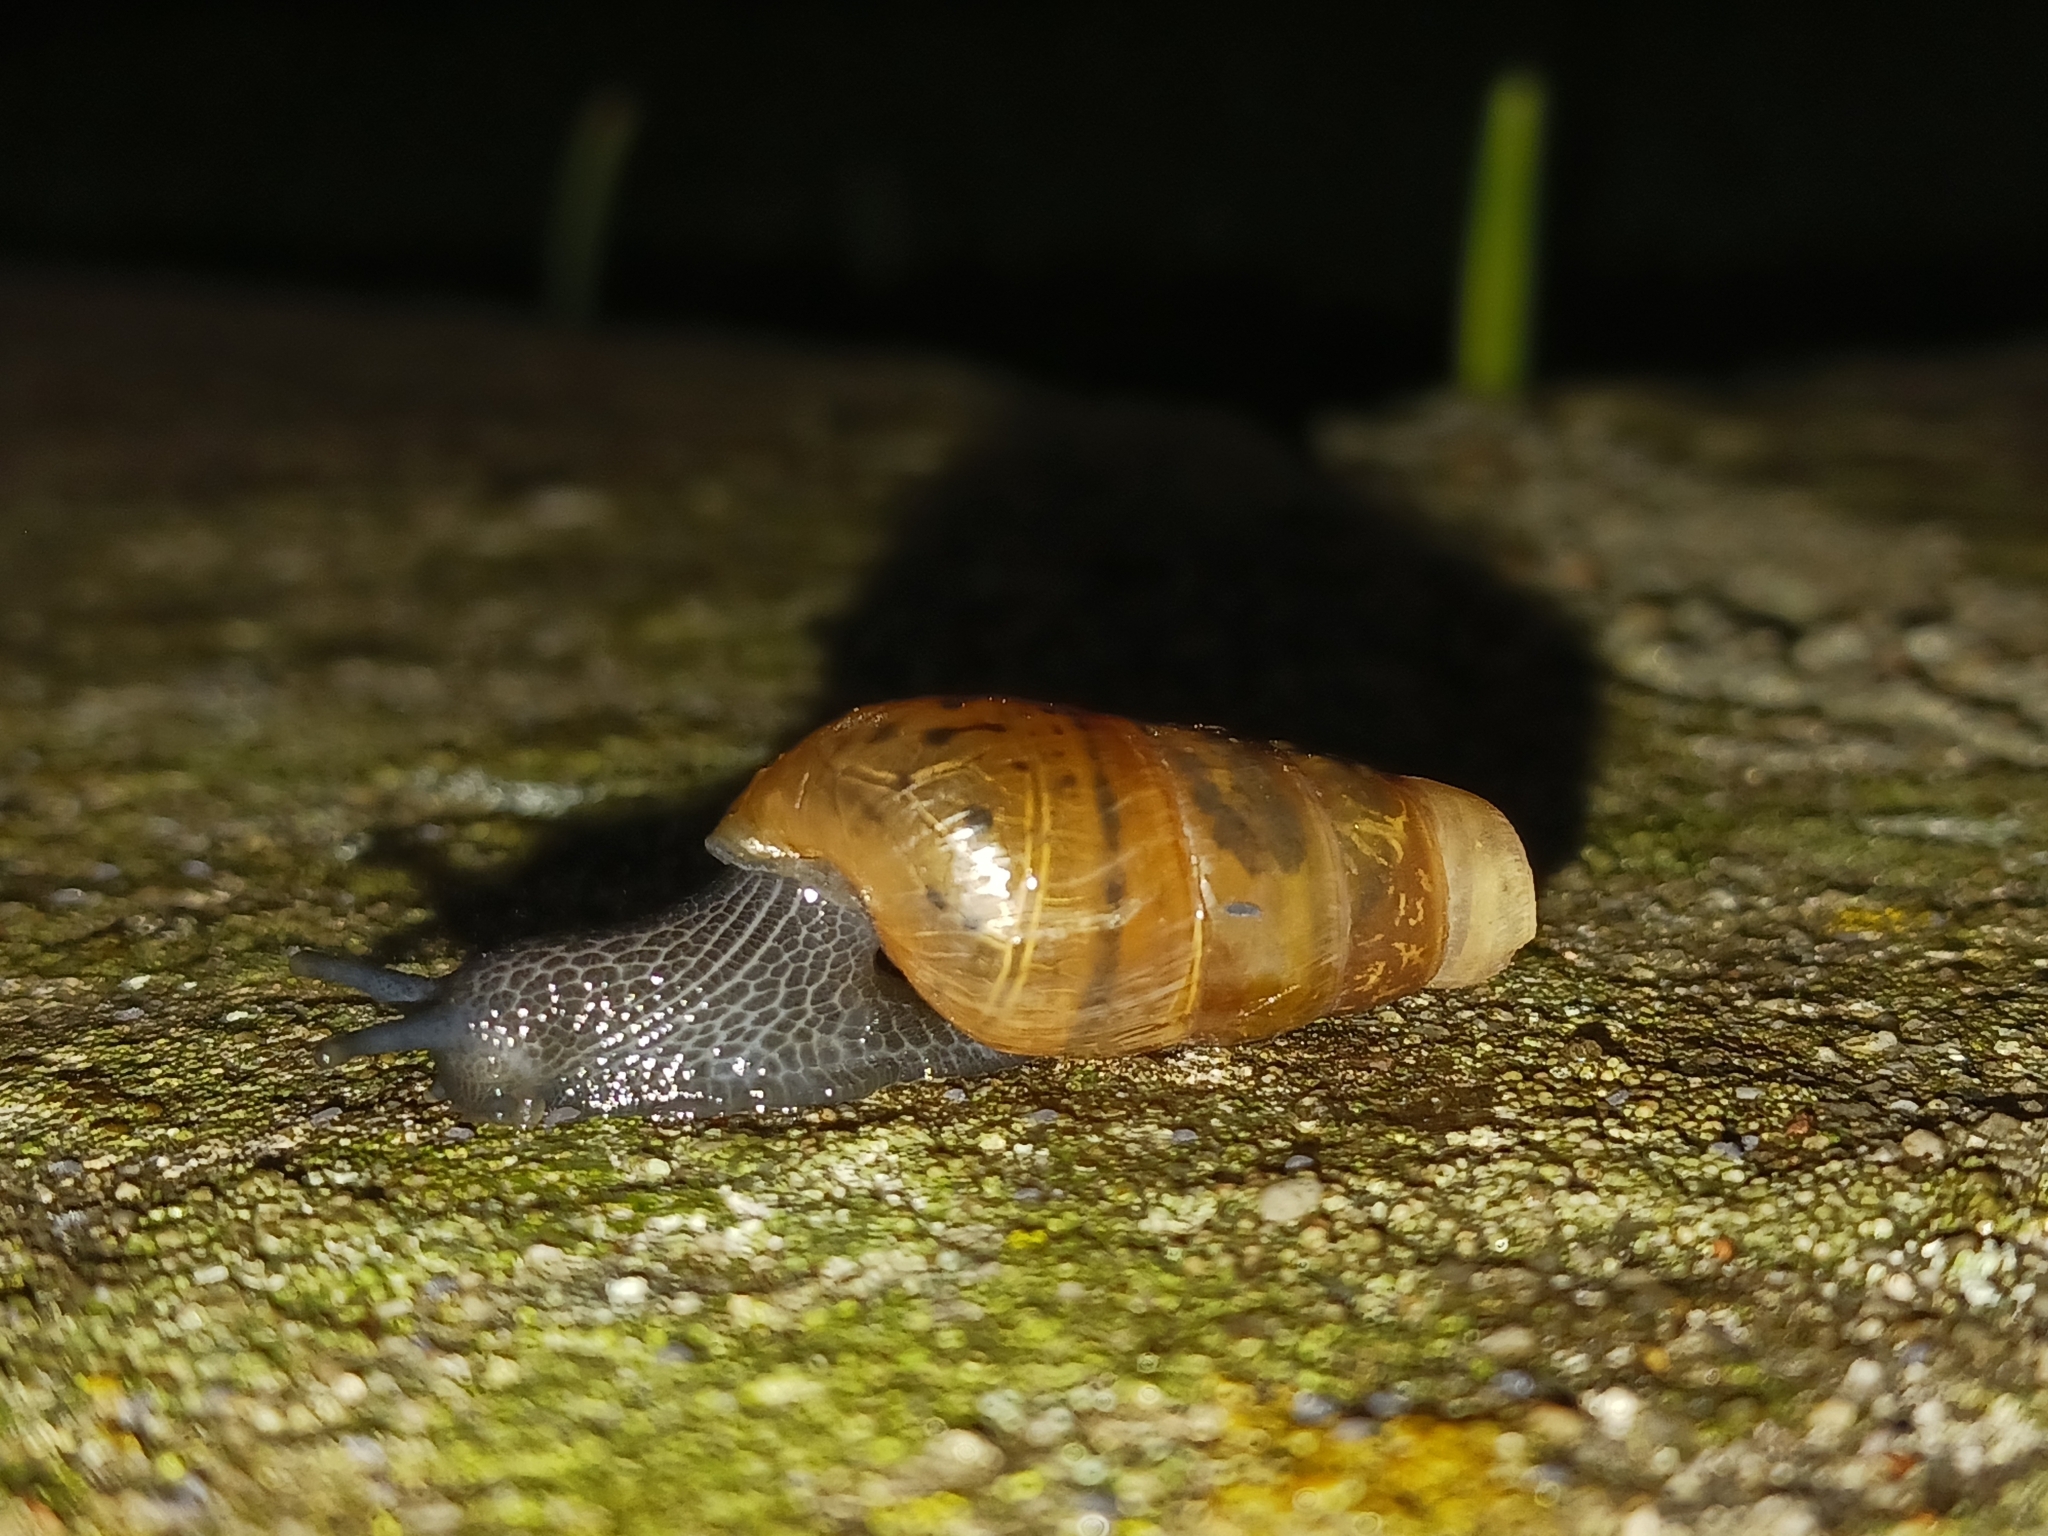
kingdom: Animalia
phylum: Mollusca
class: Gastropoda
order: Stylommatophora
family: Achatinidae
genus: Rumina
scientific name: Rumina decollata
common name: Decollate snail
